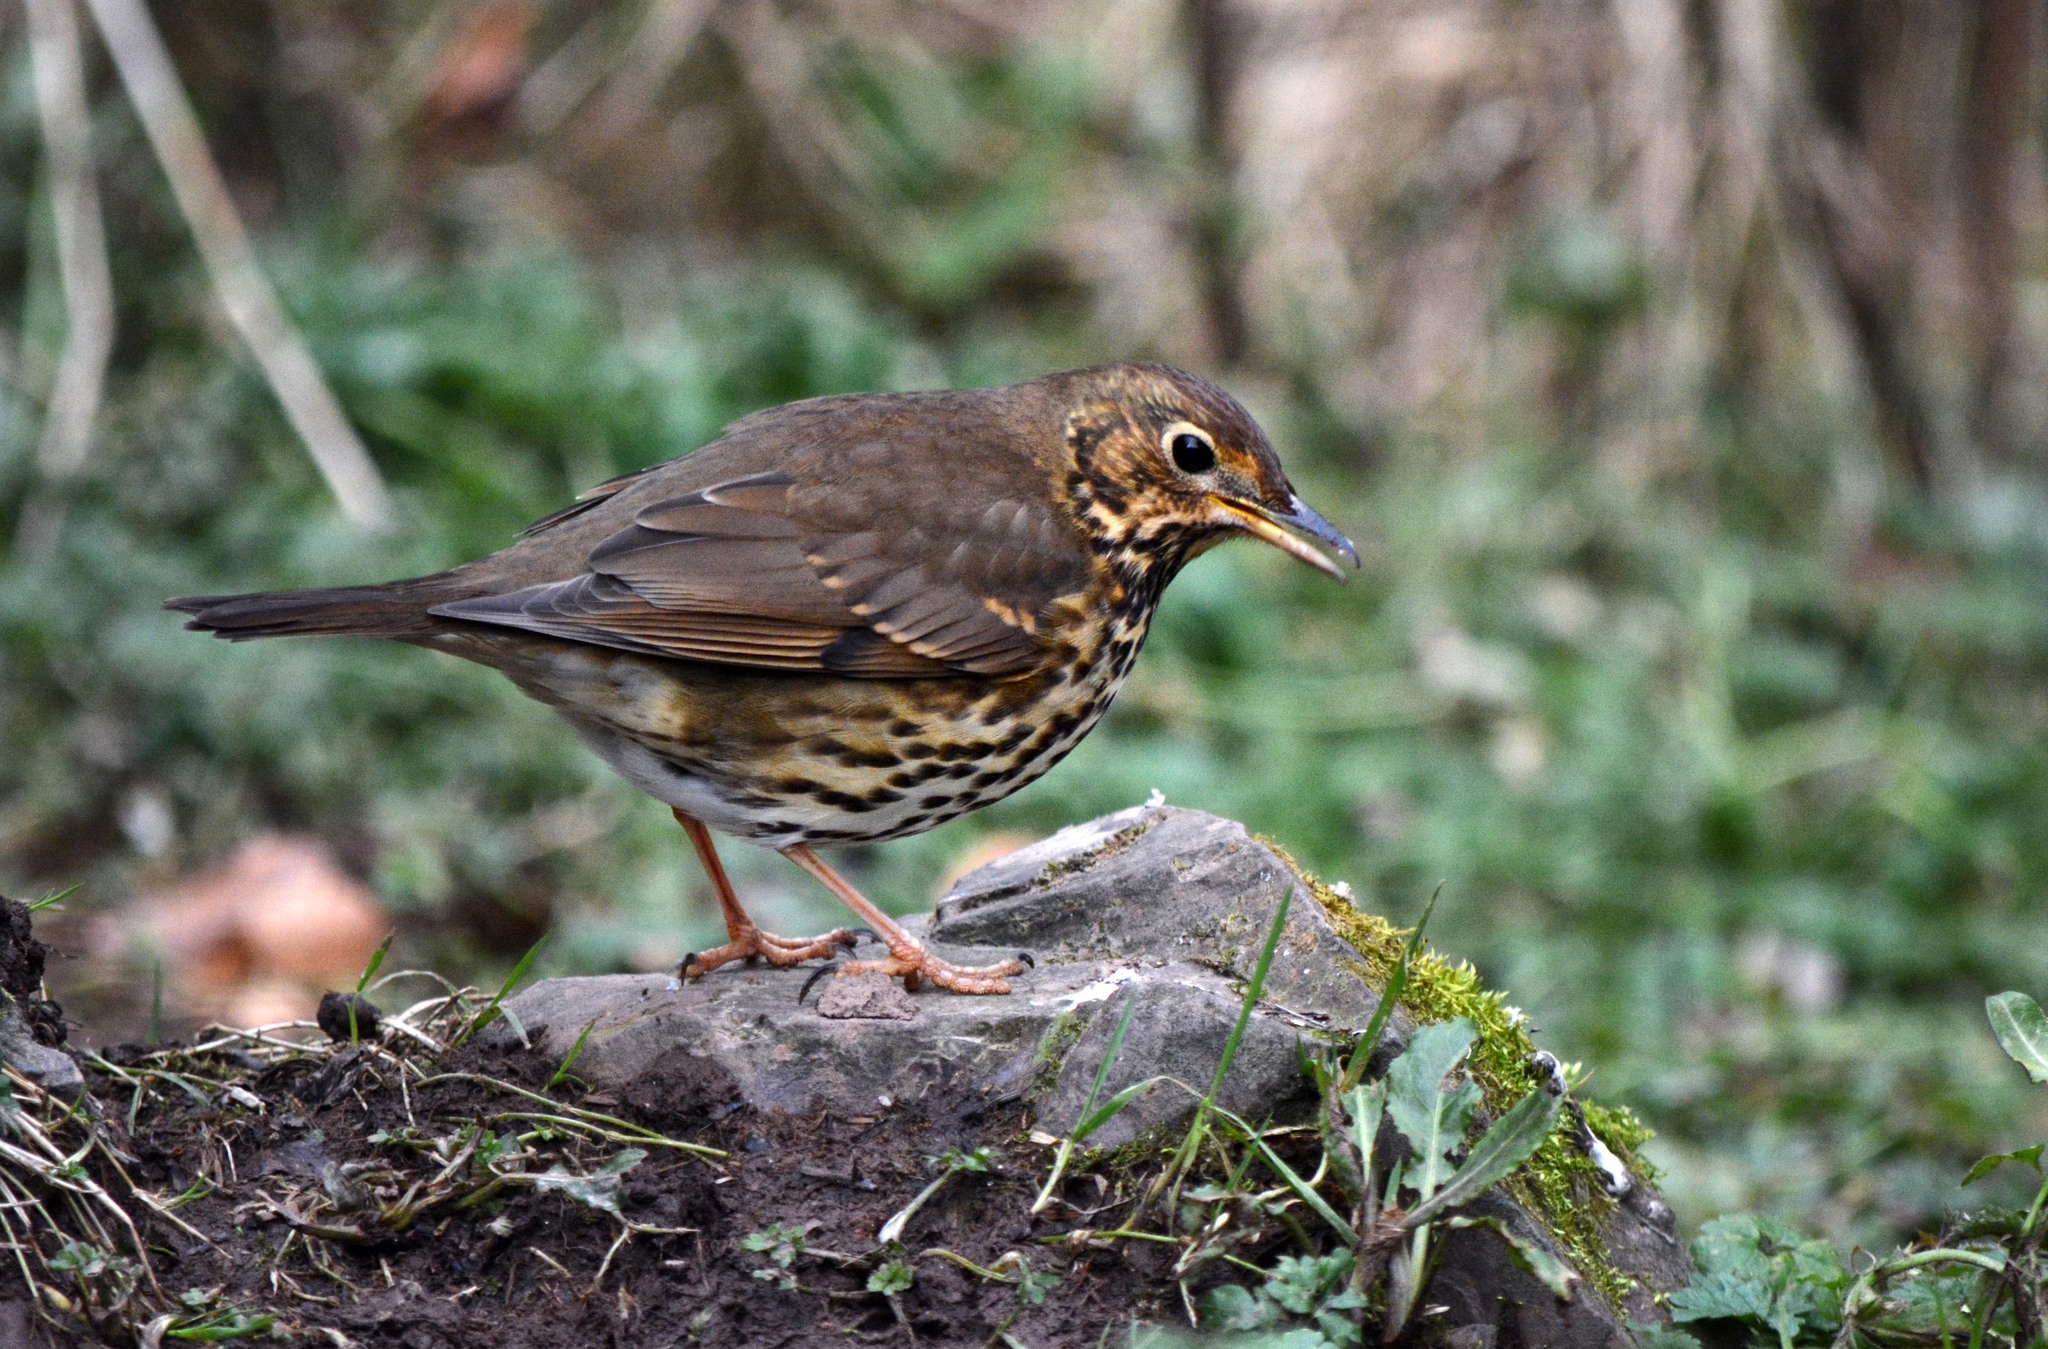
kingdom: Animalia
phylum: Chordata
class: Aves
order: Passeriformes
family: Turdidae
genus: Turdus
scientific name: Turdus philomelos
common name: Song thrush
